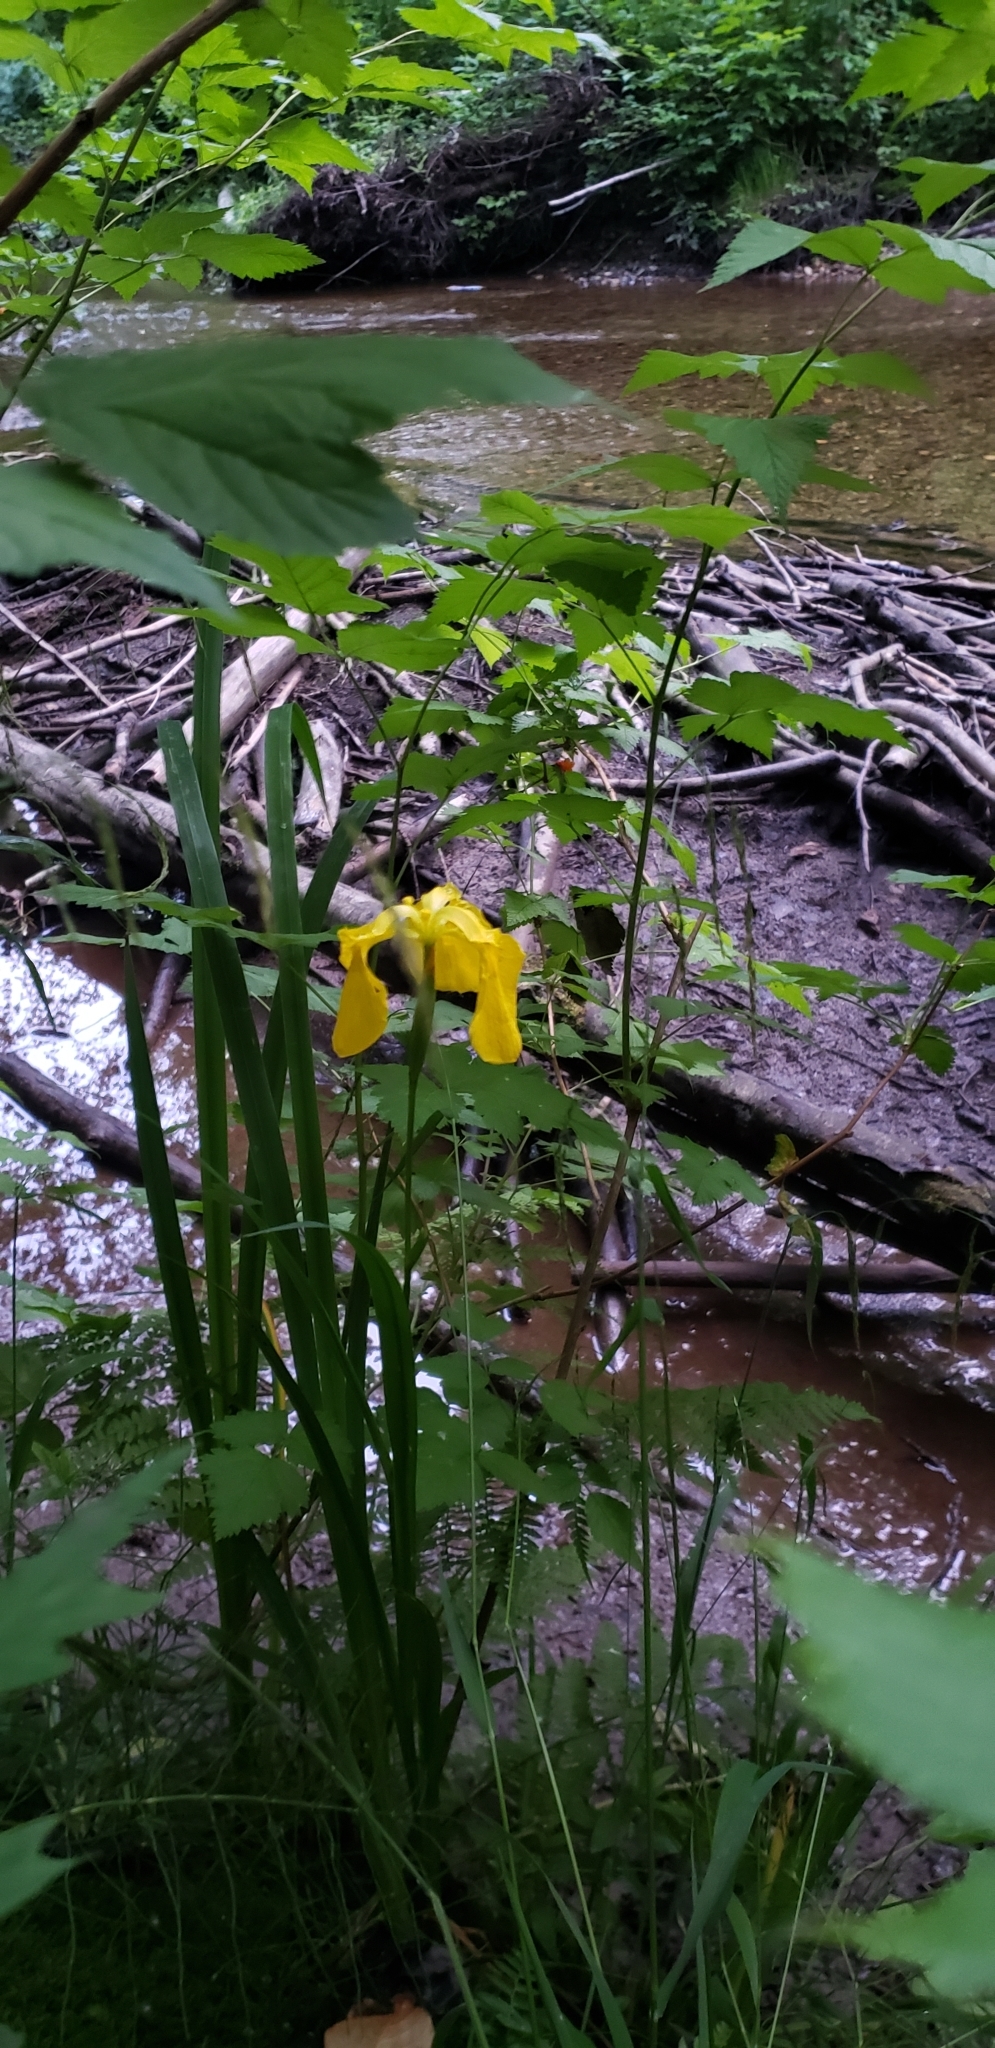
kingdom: Plantae
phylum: Tracheophyta
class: Liliopsida
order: Asparagales
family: Iridaceae
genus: Iris
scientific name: Iris pseudacorus
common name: Yellow flag
